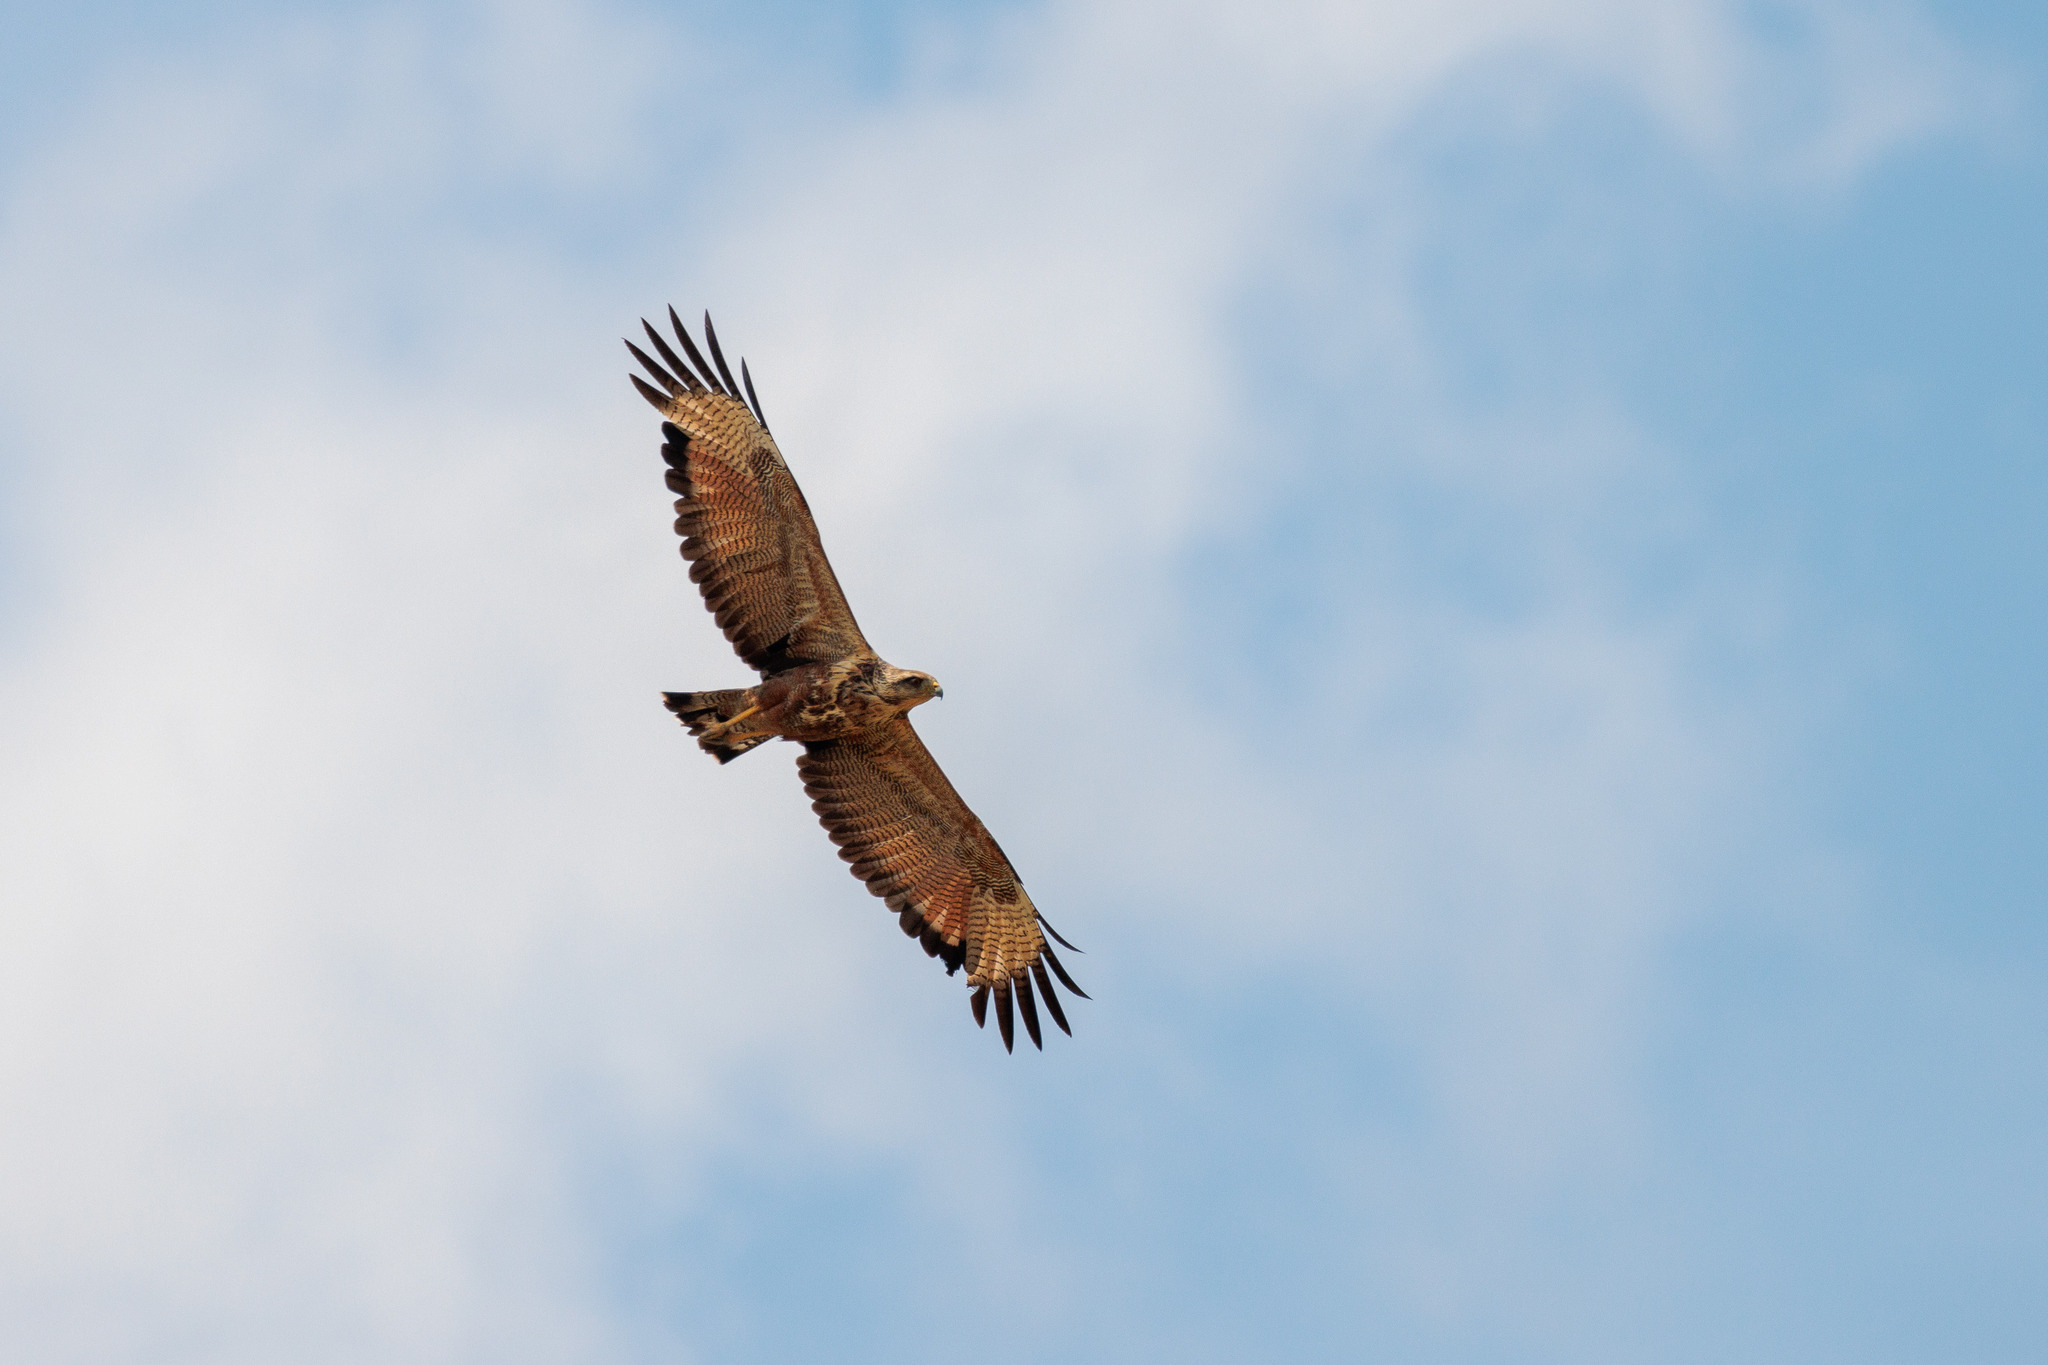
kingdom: Animalia
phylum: Chordata
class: Aves
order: Accipitriformes
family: Accipitridae
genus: Buteogallus
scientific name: Buteogallus meridionalis
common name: Savanna hawk
